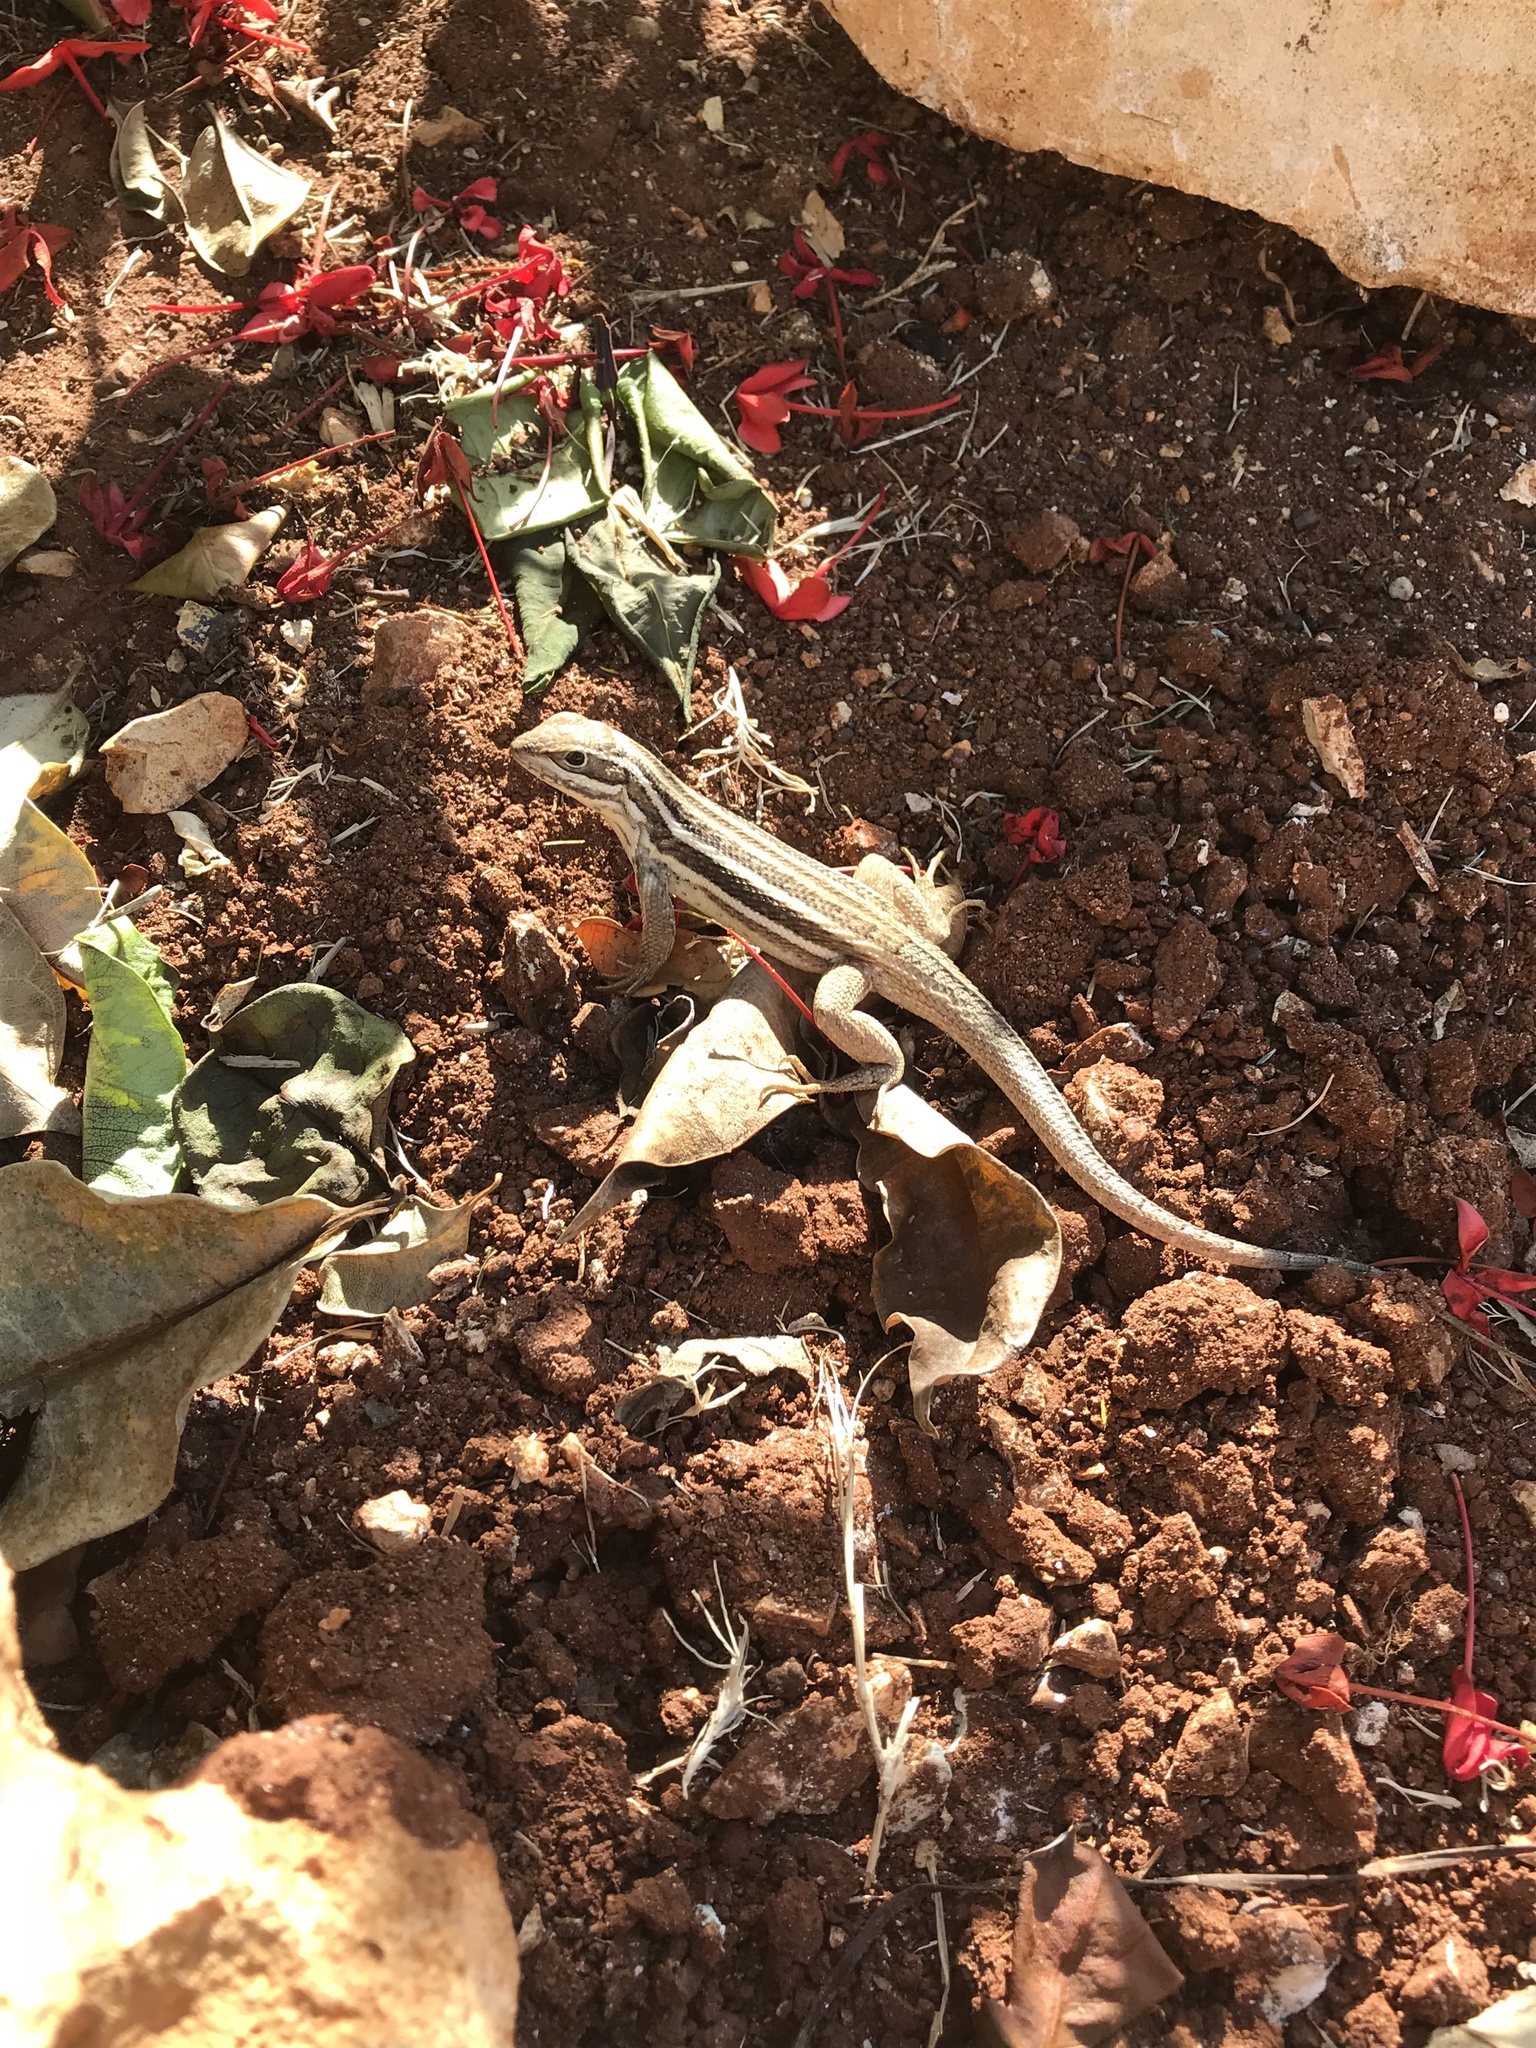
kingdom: Animalia
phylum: Chordata
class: Squamata
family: Leiocephalidae
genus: Leiocephalus
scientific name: Leiocephalus stictigaster
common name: Cabo corrientes curlytail lizard
